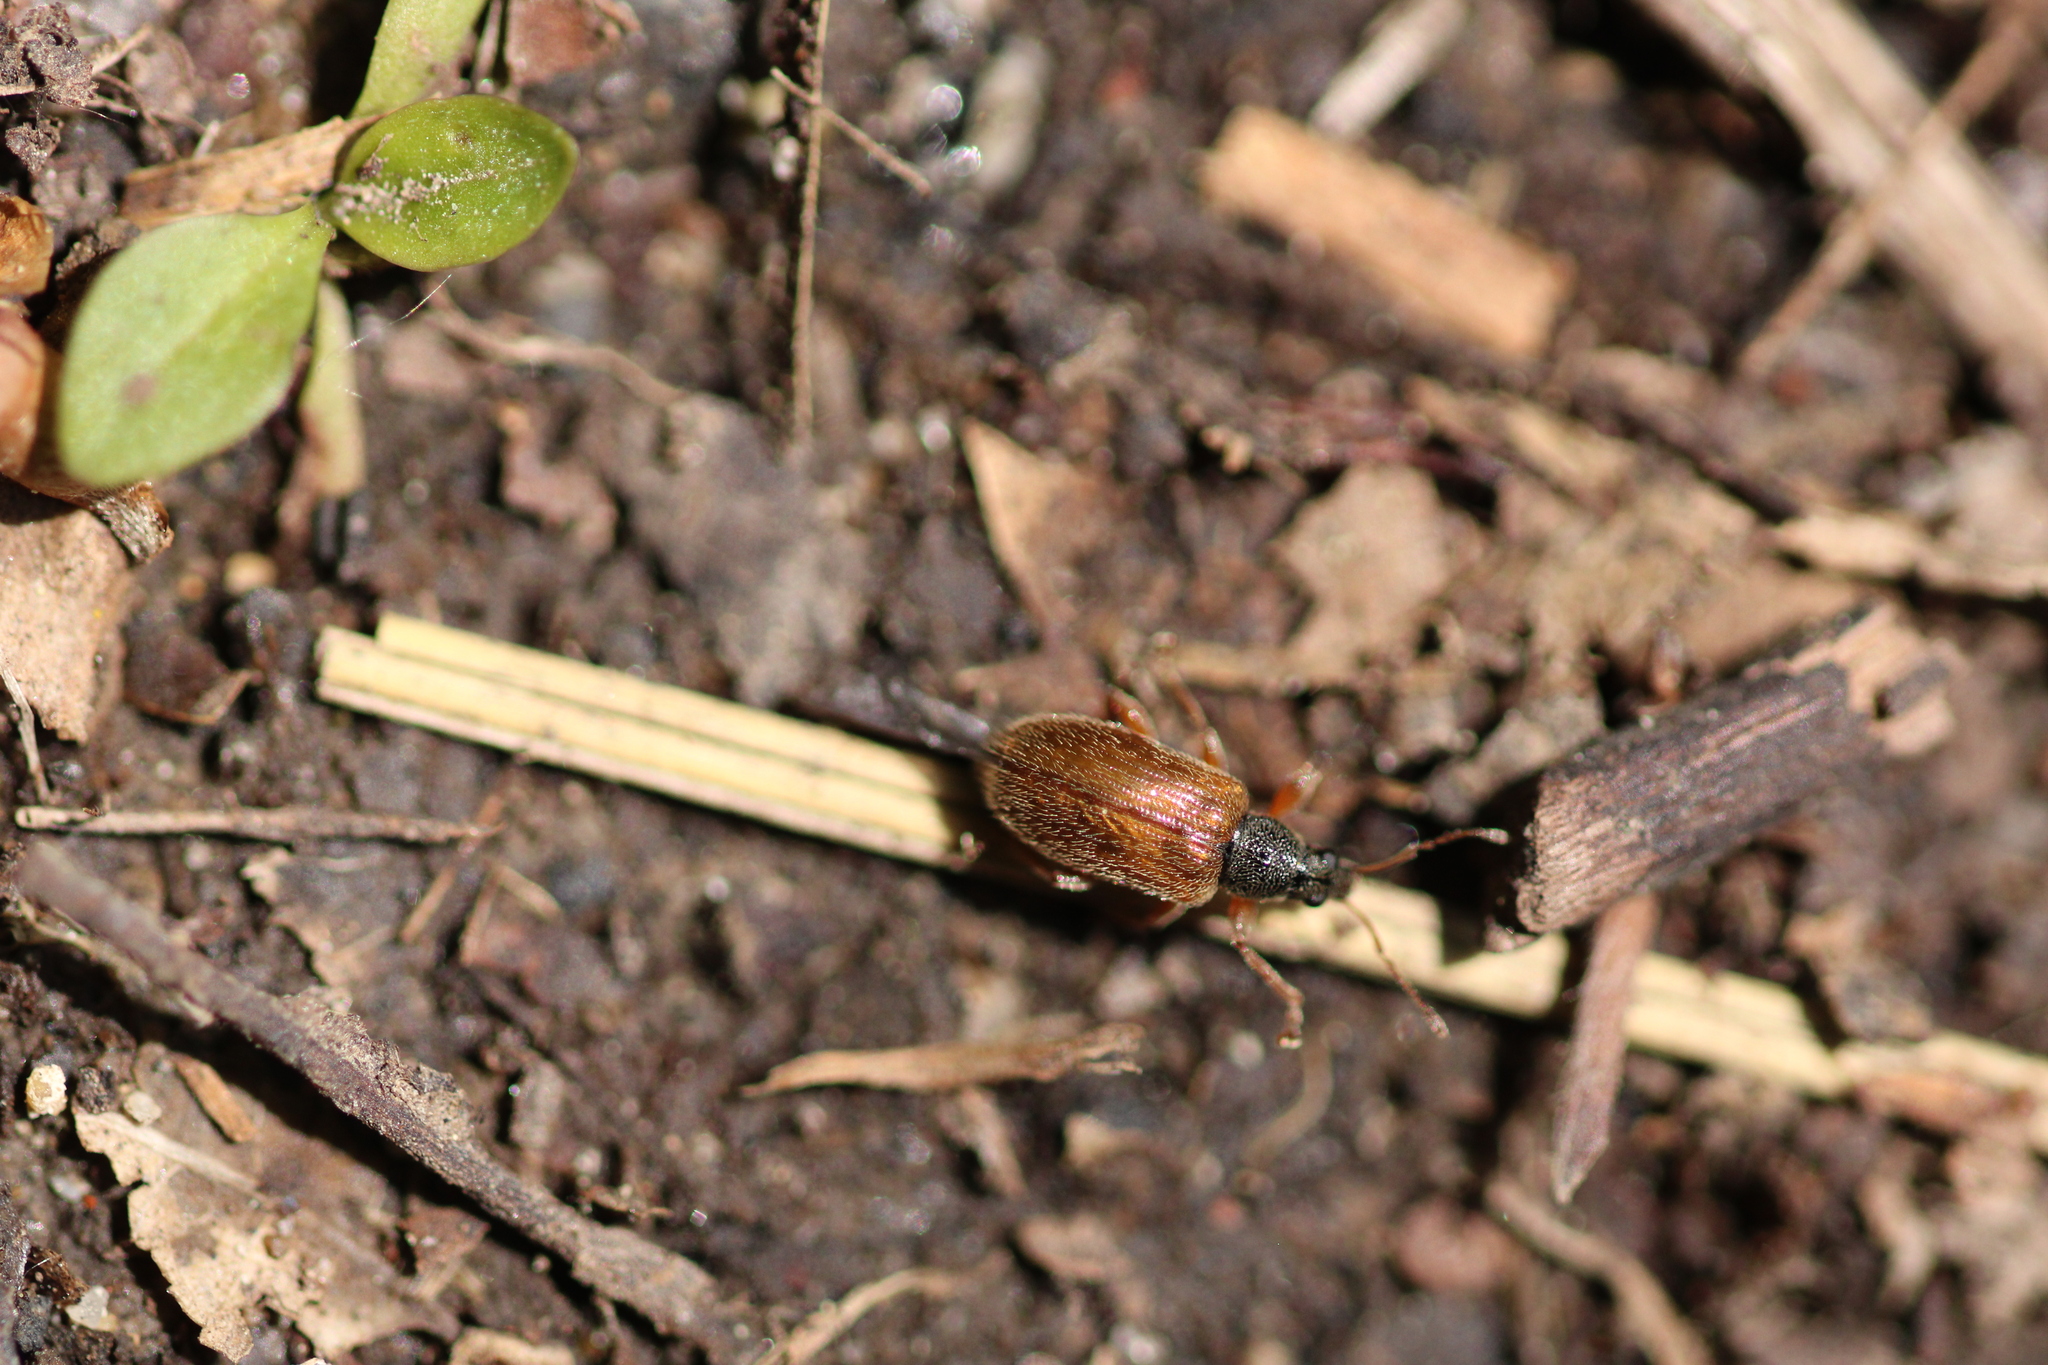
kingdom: Animalia
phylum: Arthropoda
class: Insecta
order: Coleoptera
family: Curculionidae
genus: Phyllobius
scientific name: Phyllobius oblongus
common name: Brown leaf weevil
